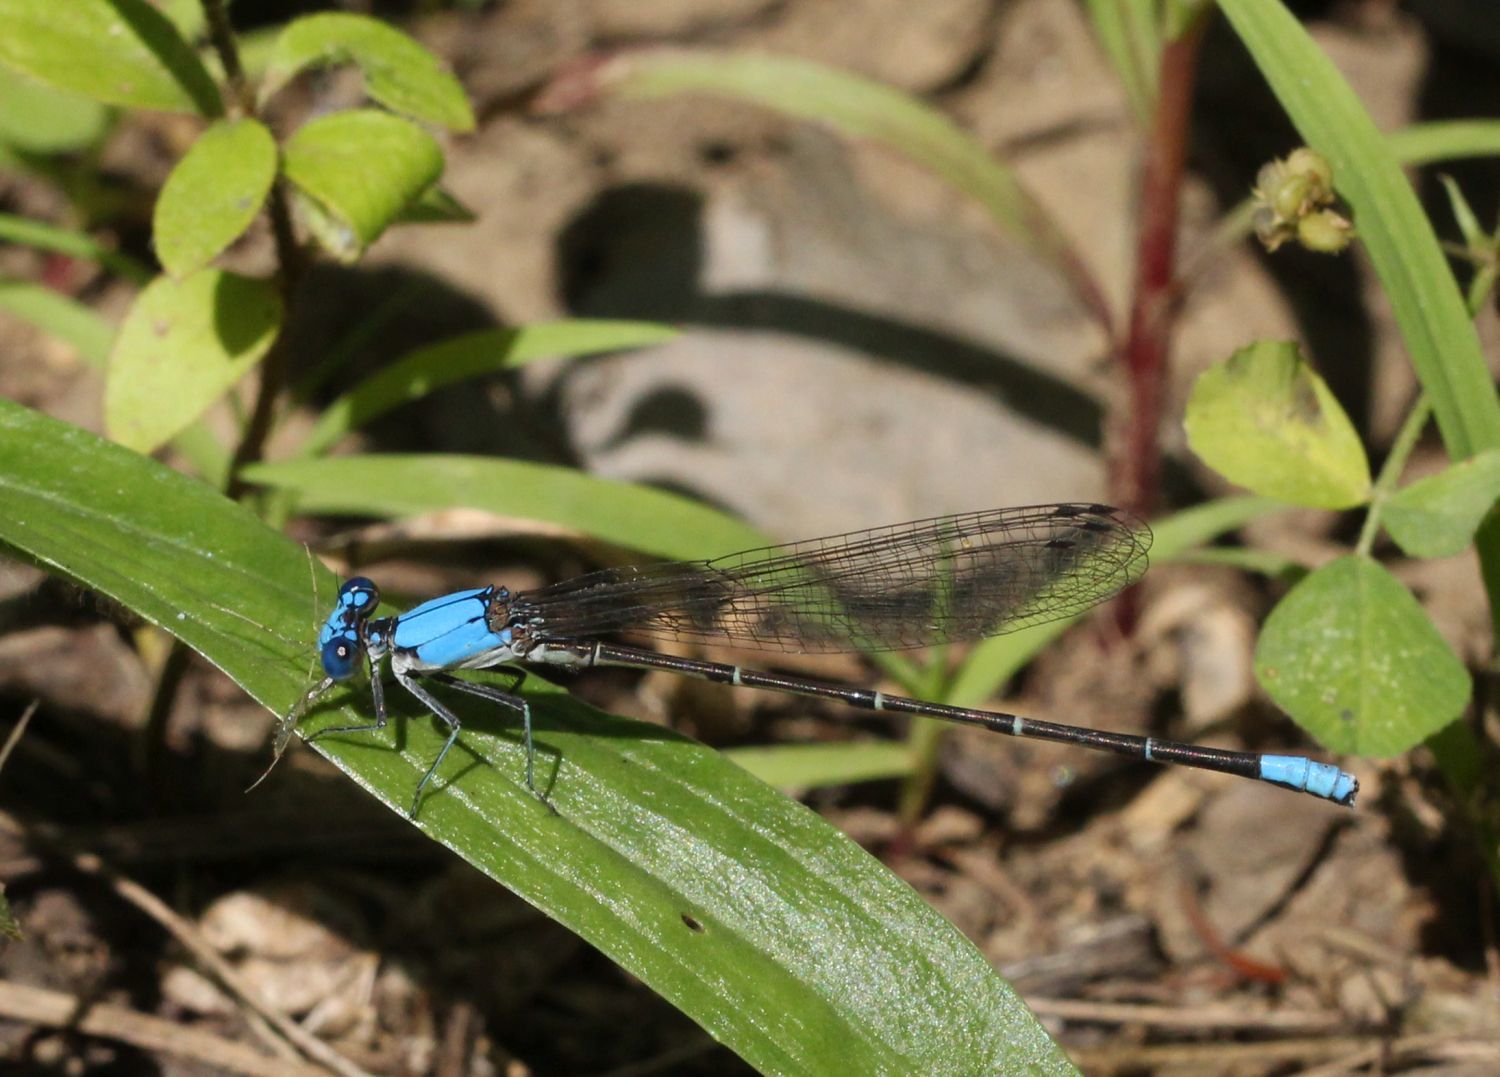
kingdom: Animalia
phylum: Arthropoda
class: Insecta
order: Odonata
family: Coenagrionidae
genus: Argia
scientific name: Argia apicalis
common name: Blue-fronted dancer
